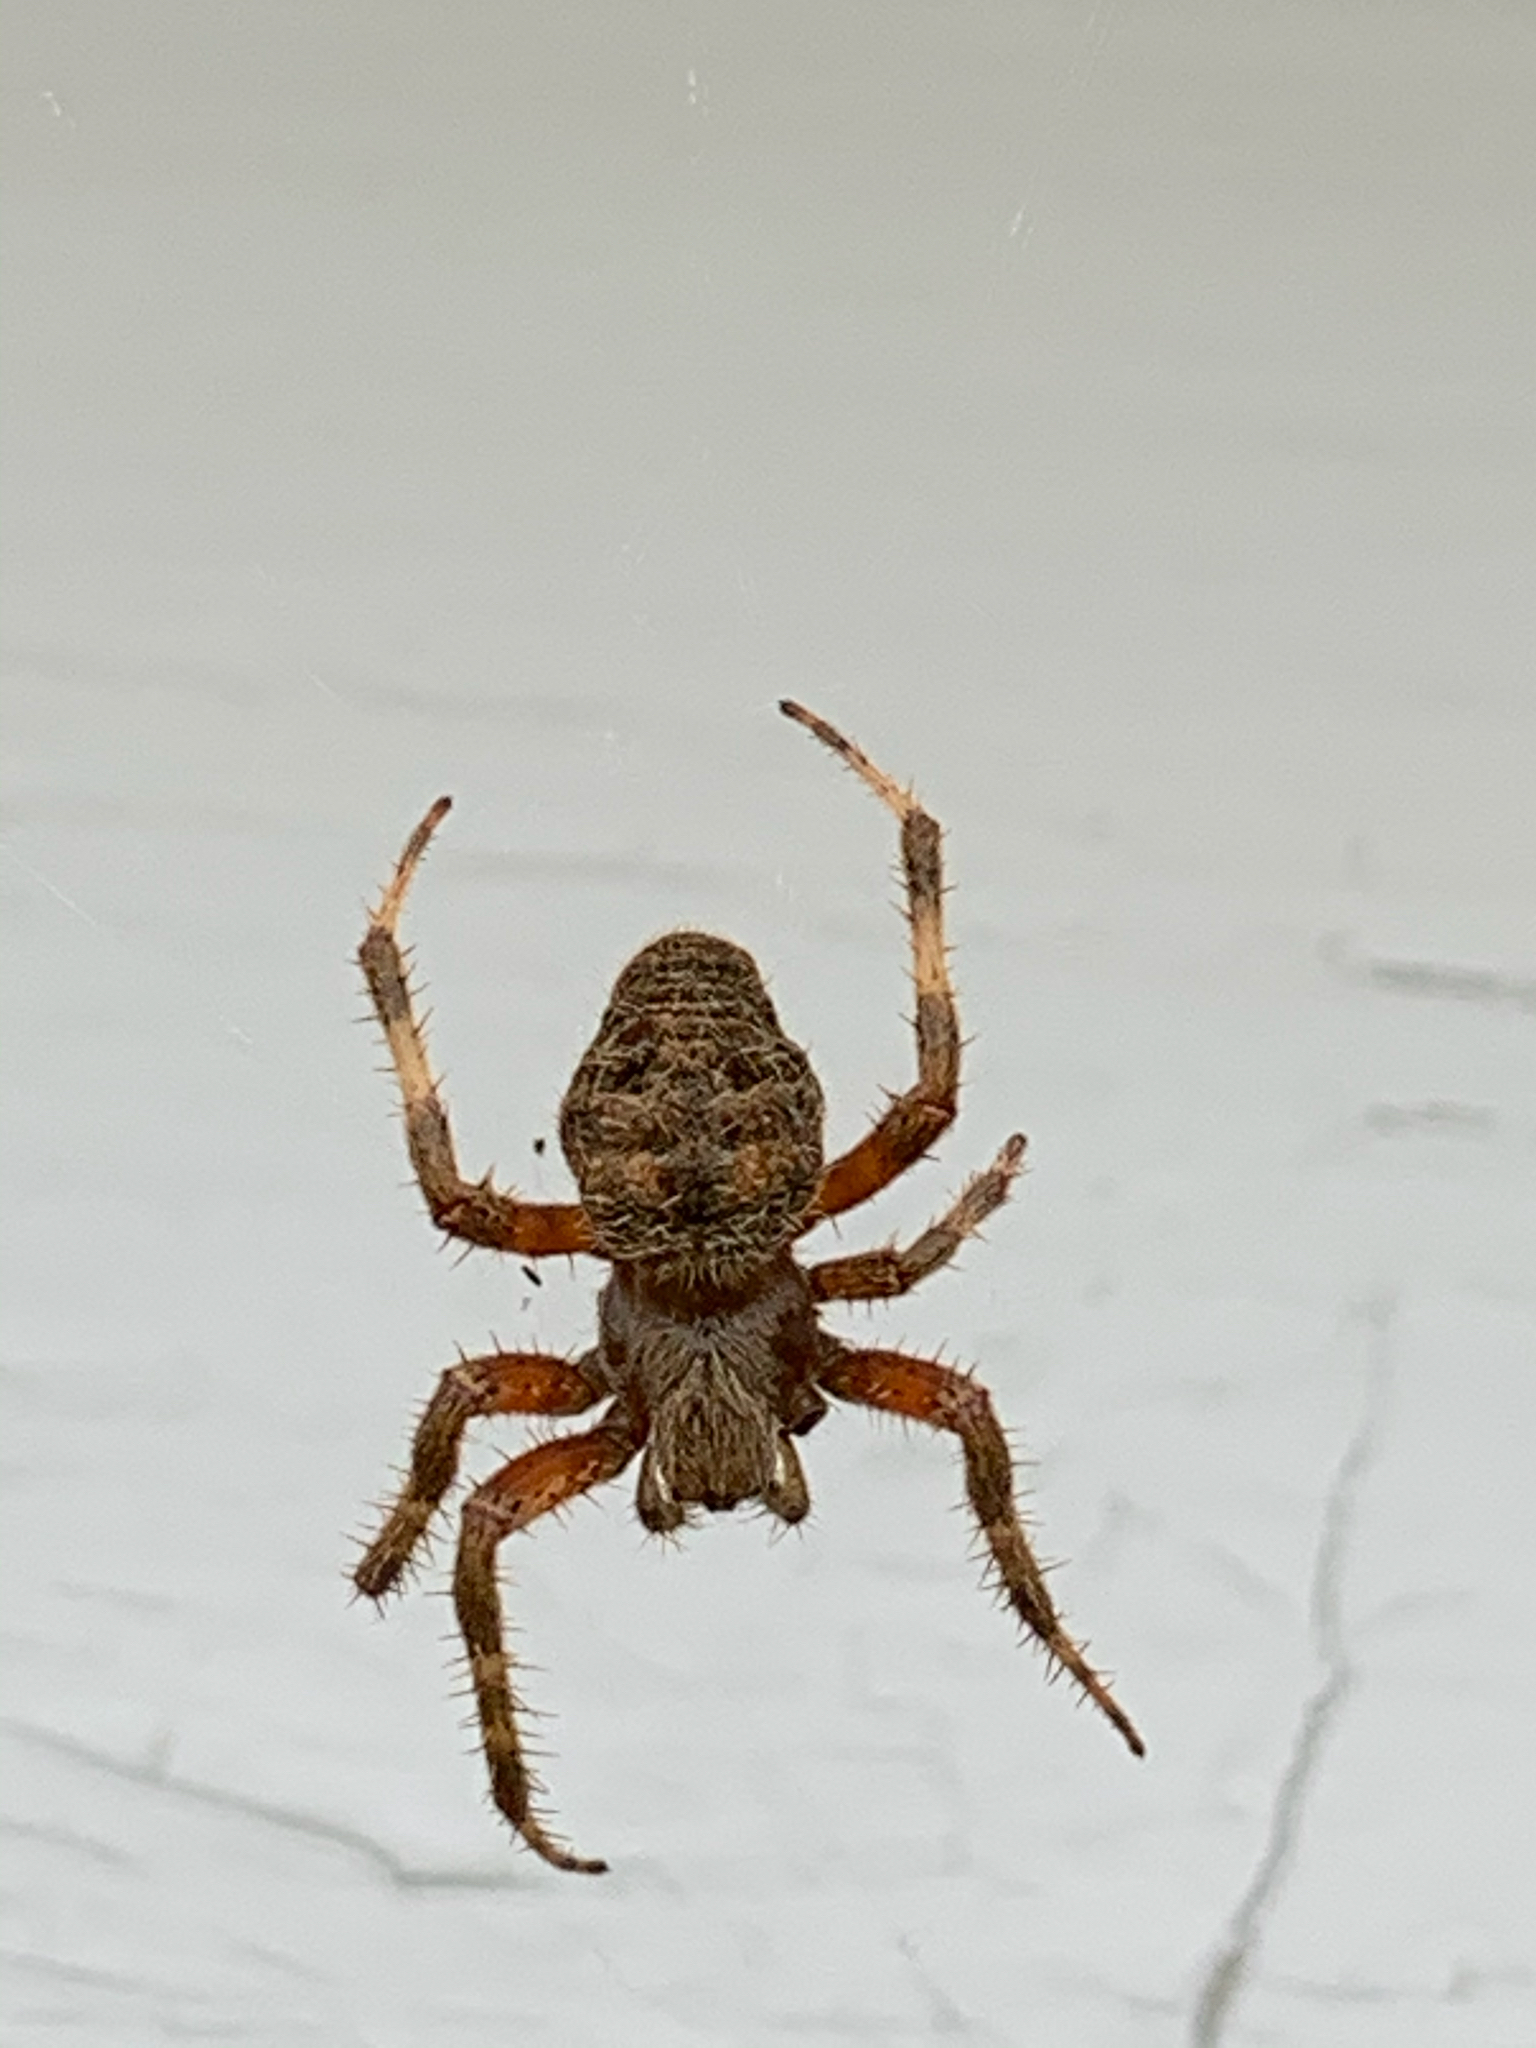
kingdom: Animalia
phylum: Arthropoda
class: Arachnida
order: Araneae
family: Araneidae
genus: Neoscona
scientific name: Neoscona crucifera
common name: Spotted orbweaver
